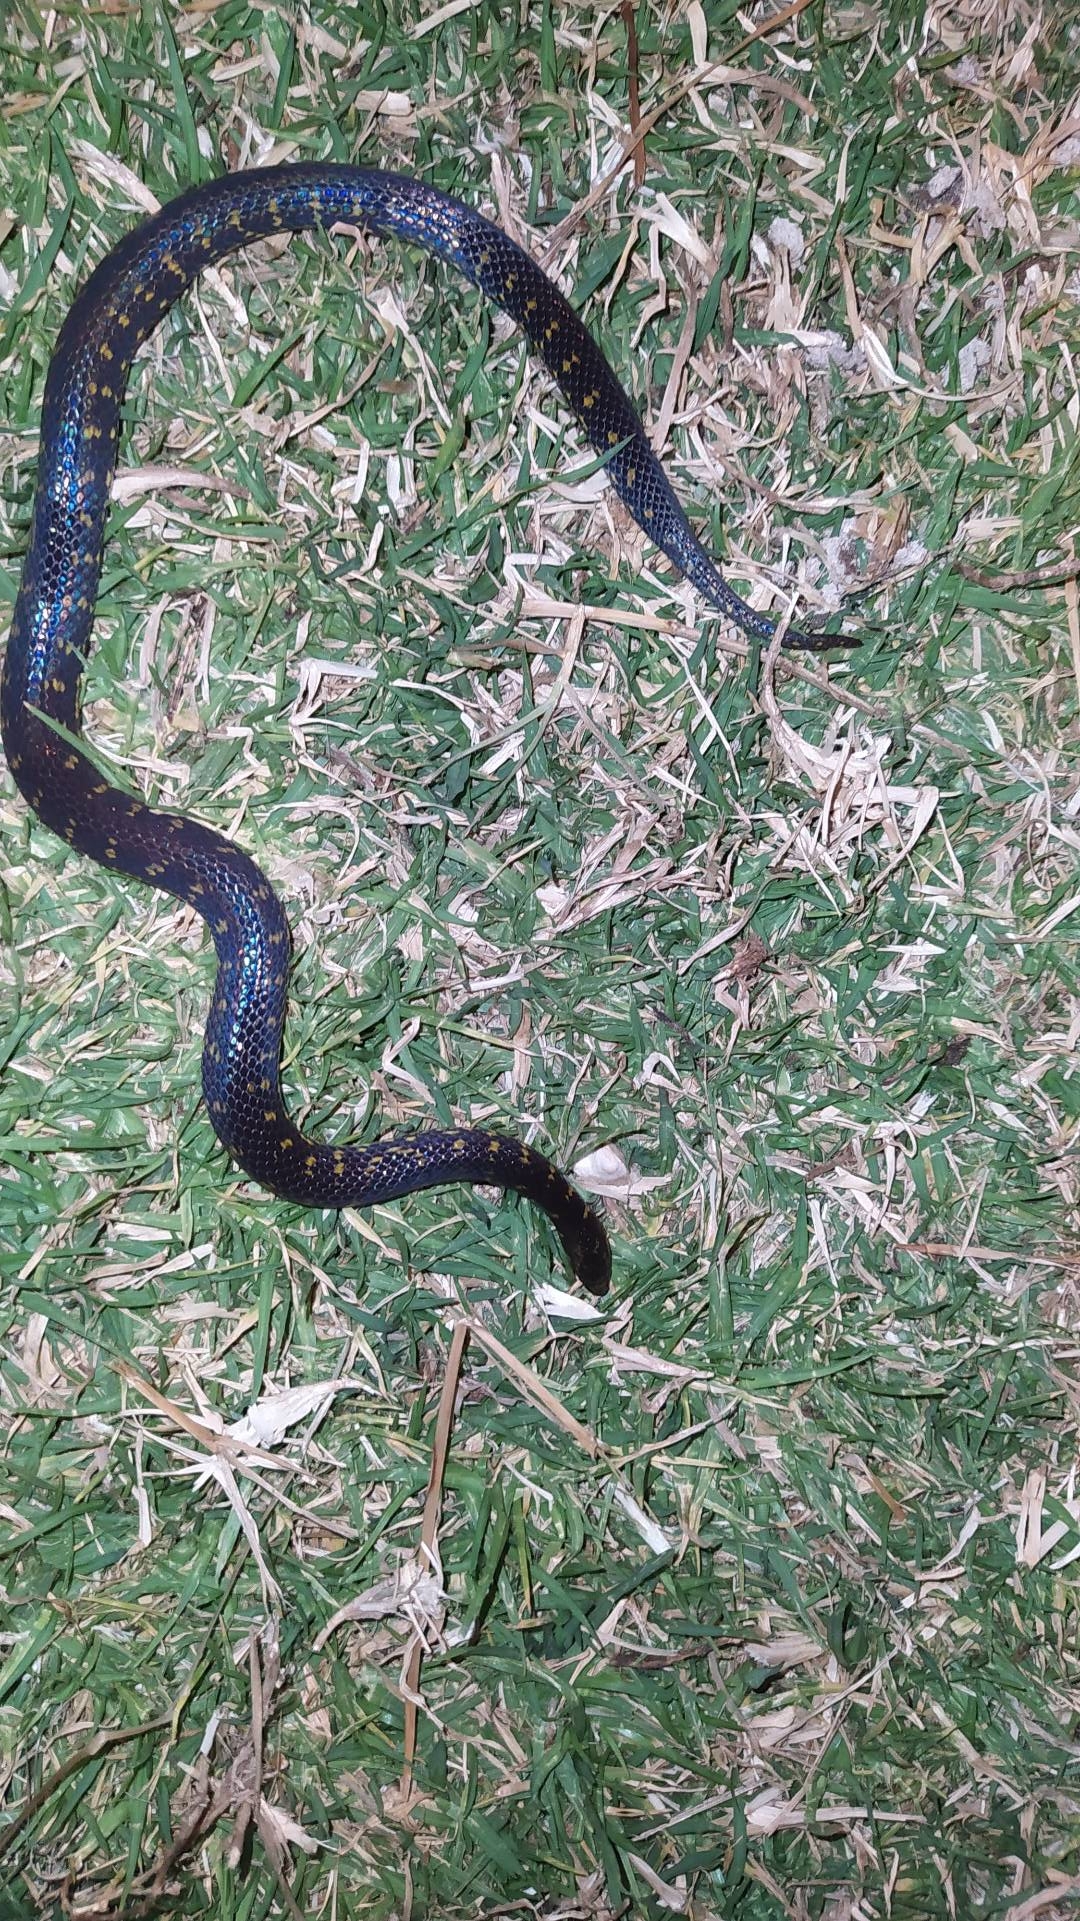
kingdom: Animalia
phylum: Chordata
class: Squamata
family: Colubridae
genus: Atractus
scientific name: Atractus crassicaudatus
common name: Thickhead ground snake
